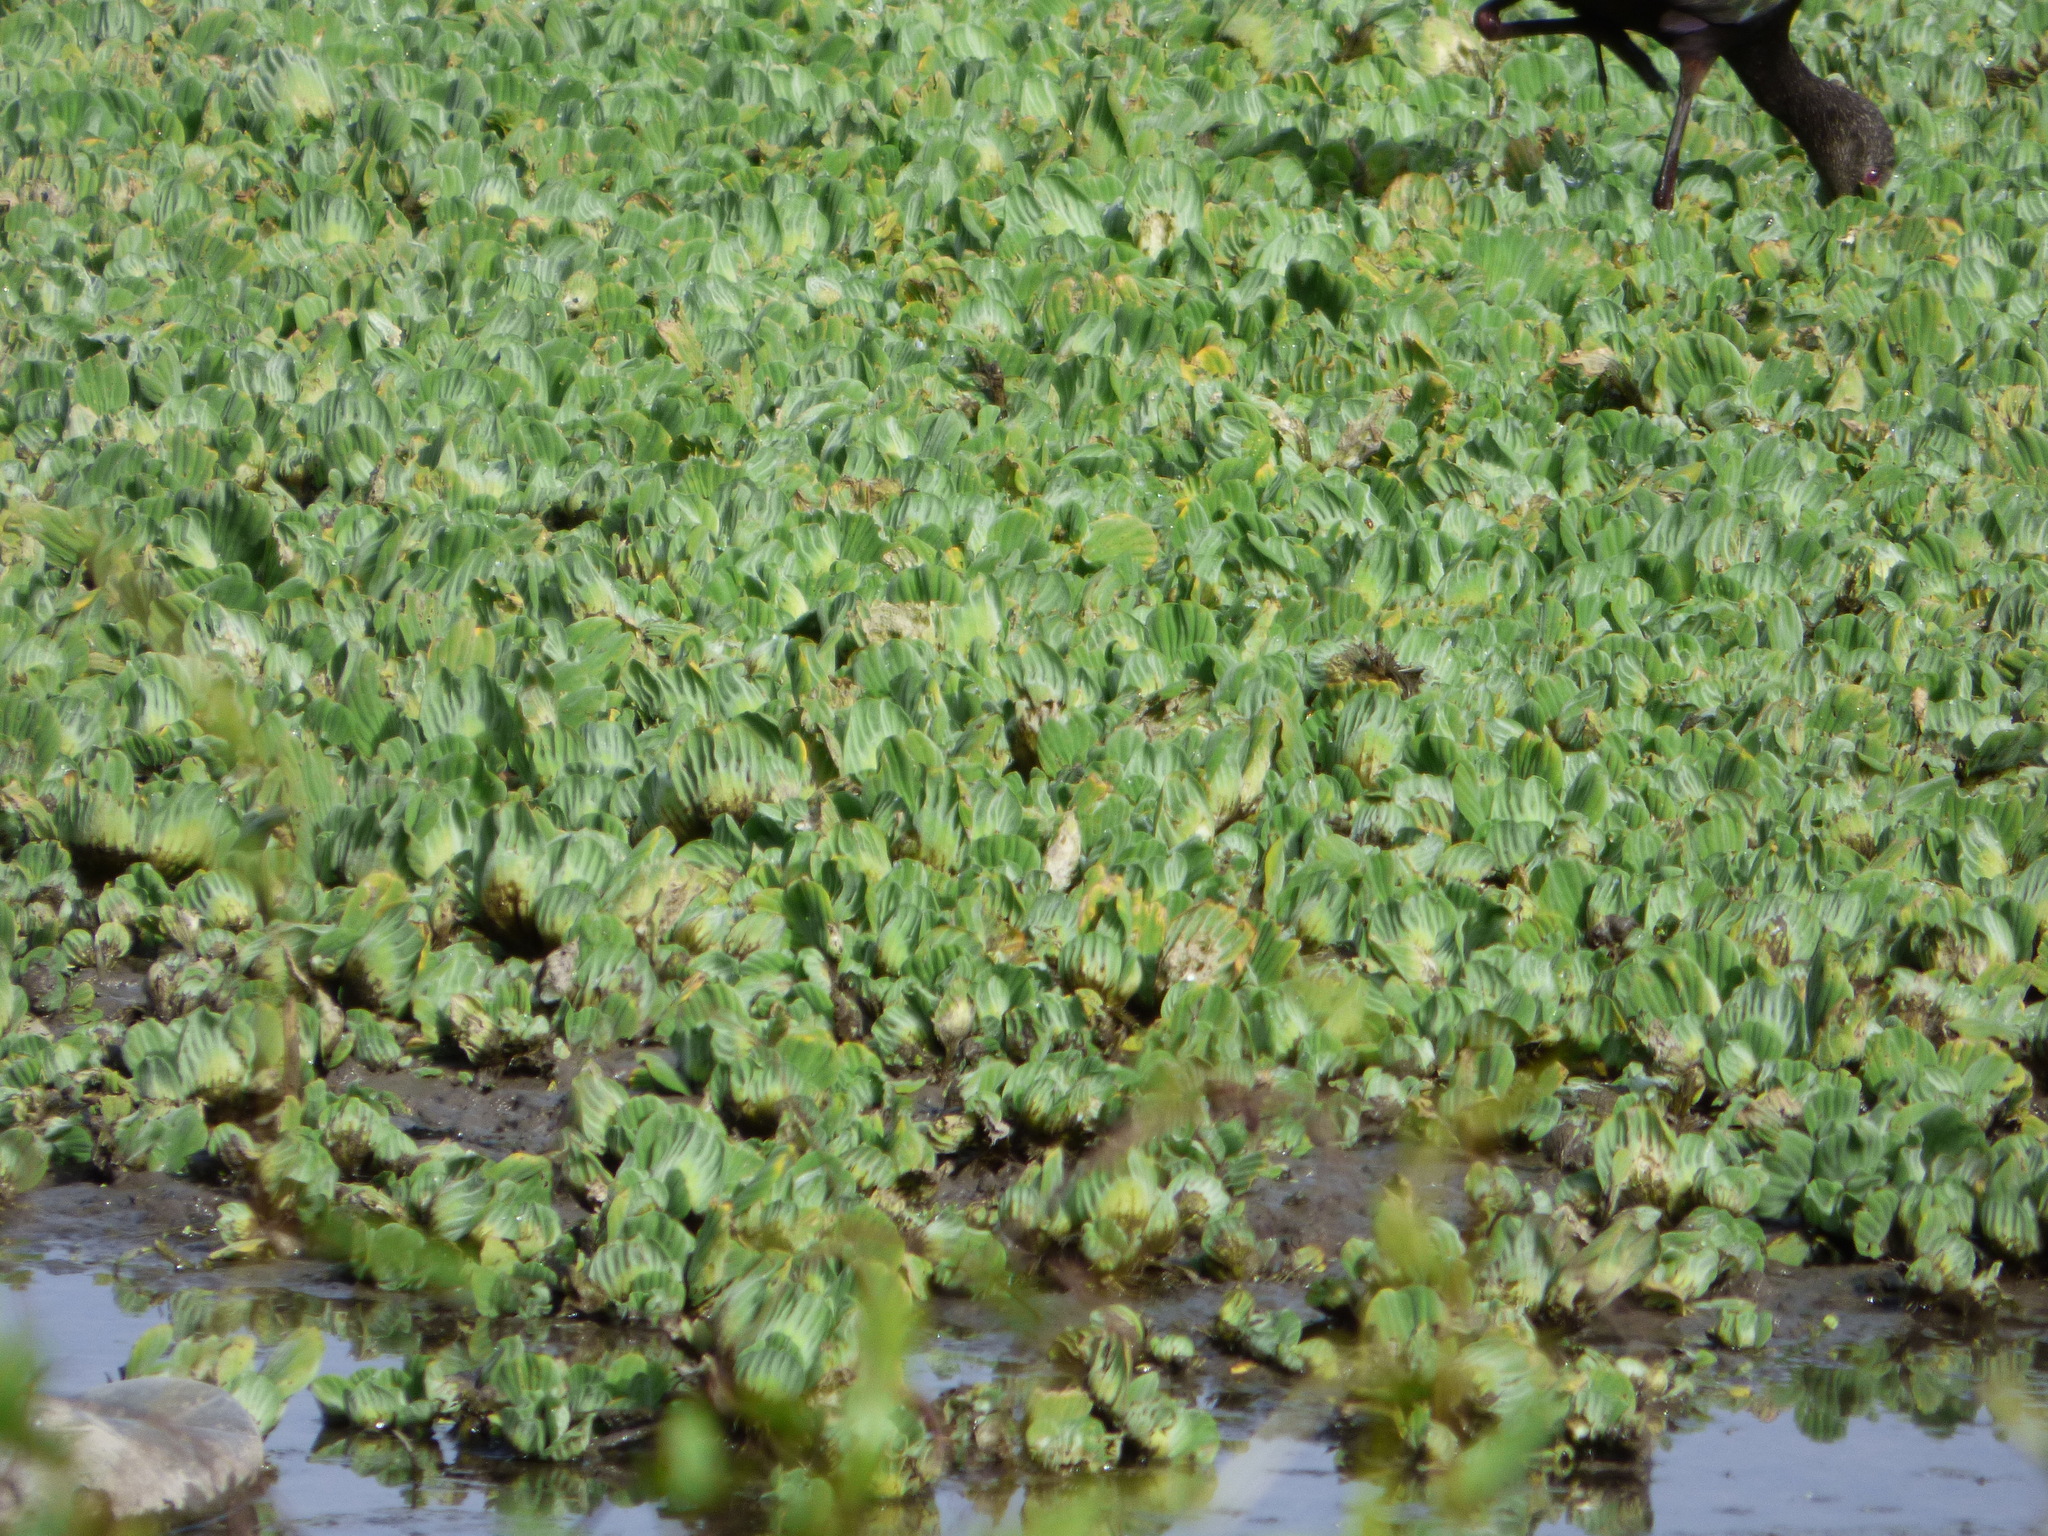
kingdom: Plantae
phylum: Tracheophyta
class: Liliopsida
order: Alismatales
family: Araceae
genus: Pistia
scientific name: Pistia stratiotes
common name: Water lettuce
